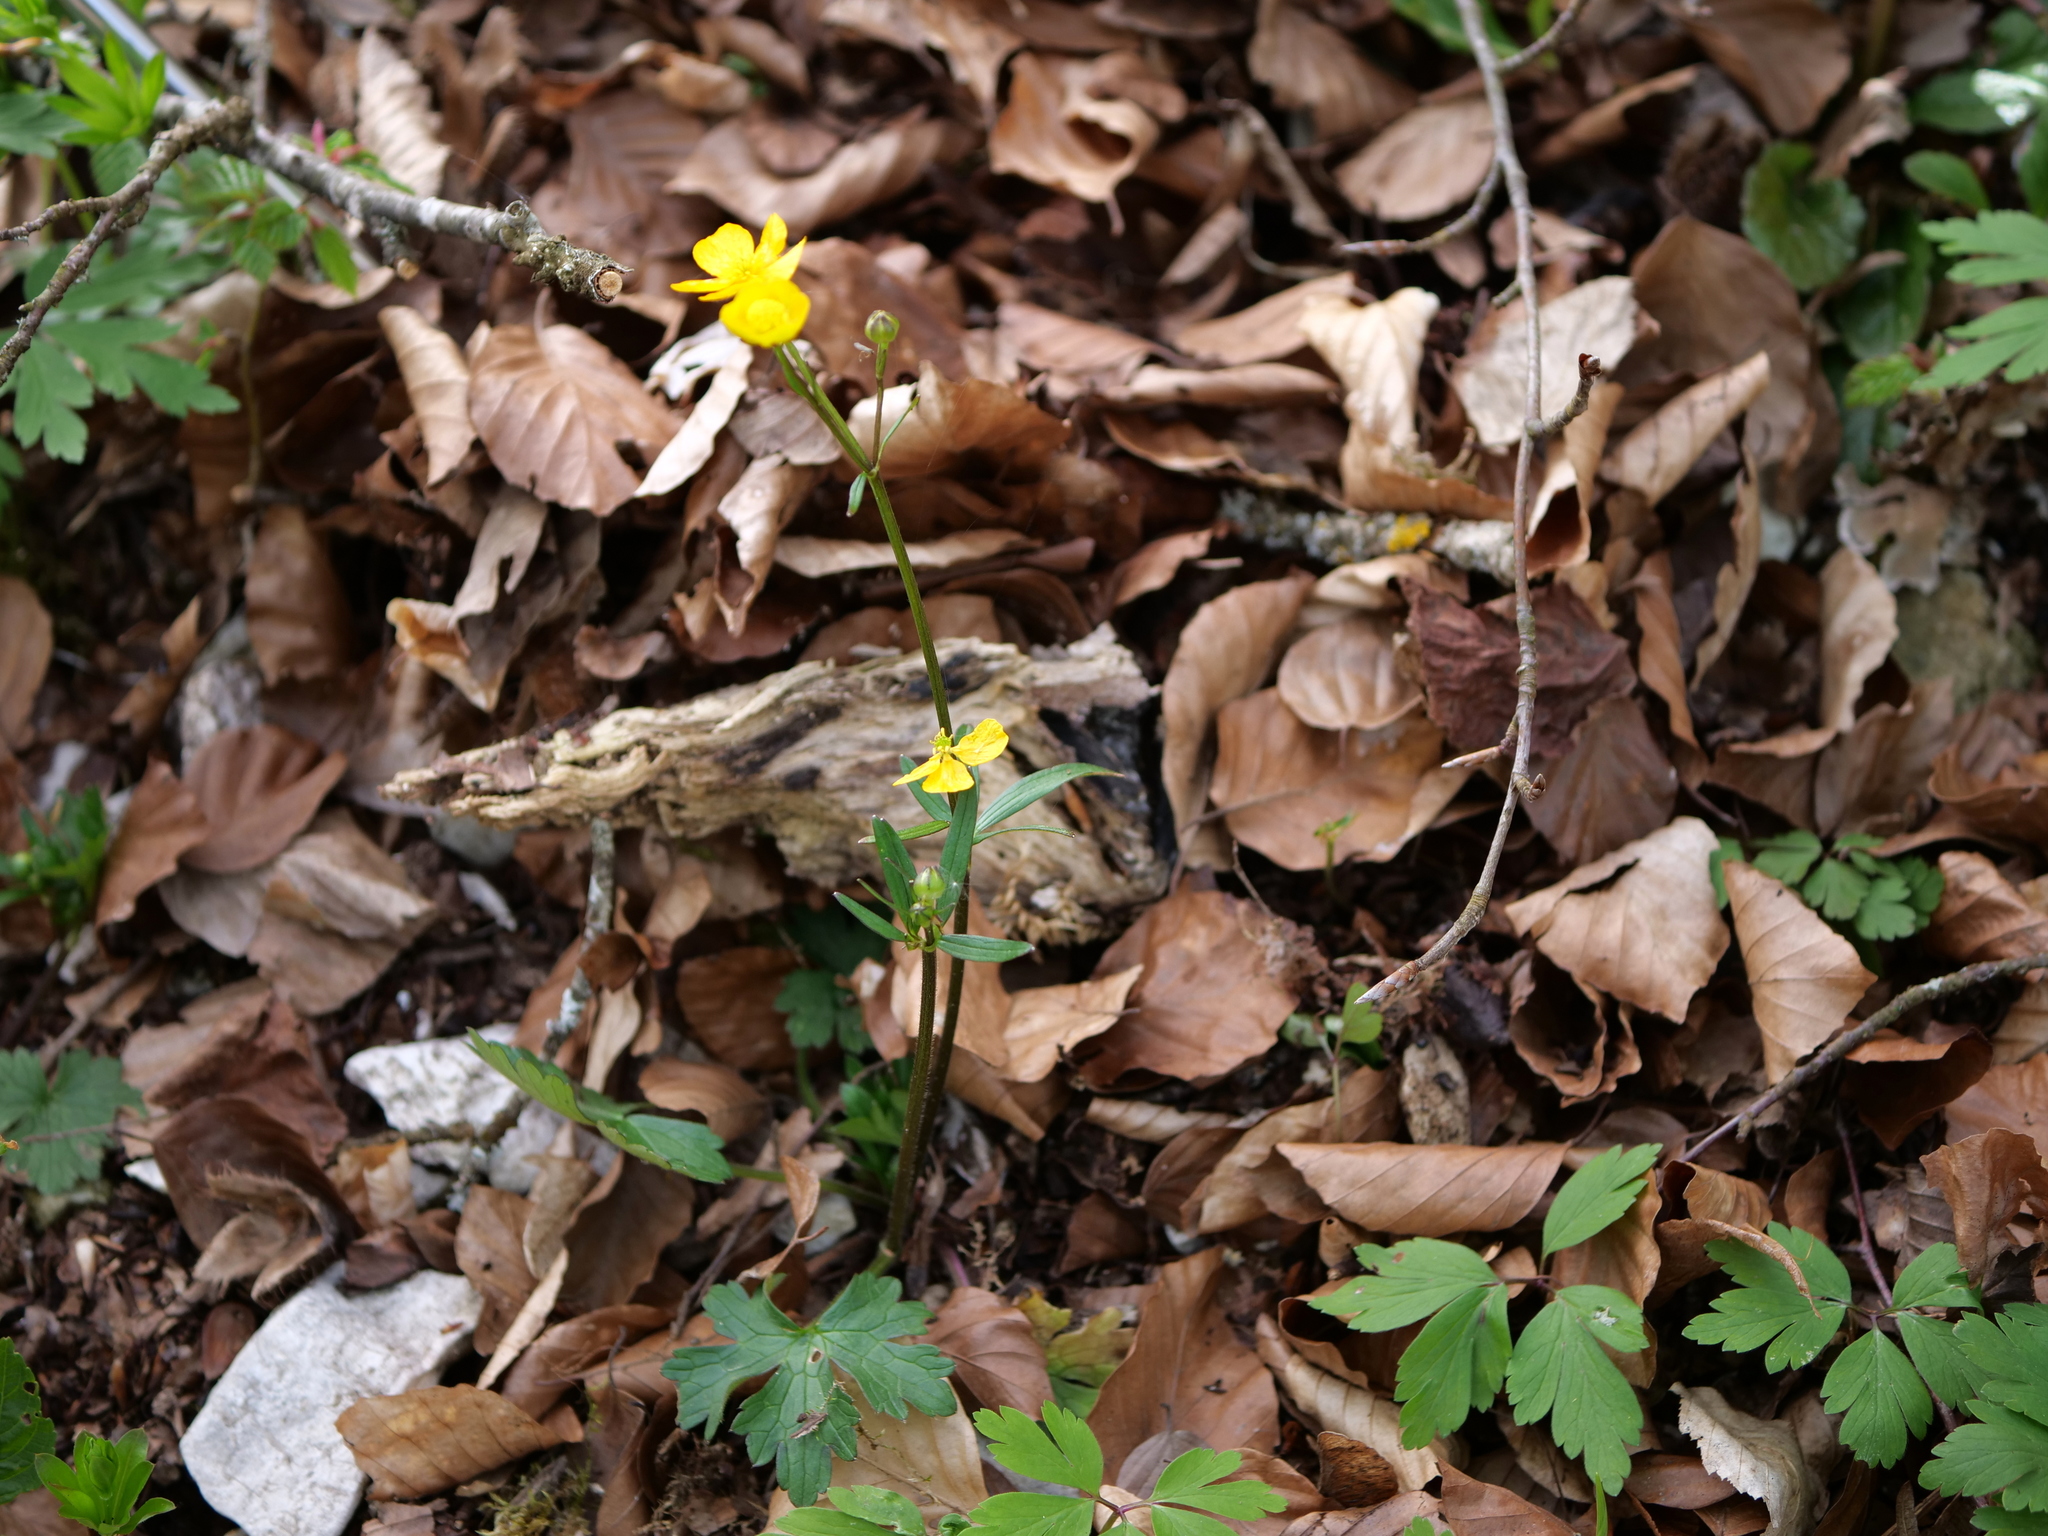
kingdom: Plantae
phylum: Tracheophyta
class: Magnoliopsida
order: Ranunculales
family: Ranunculaceae
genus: Ranunculus
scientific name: Ranunculus carinthiacus
